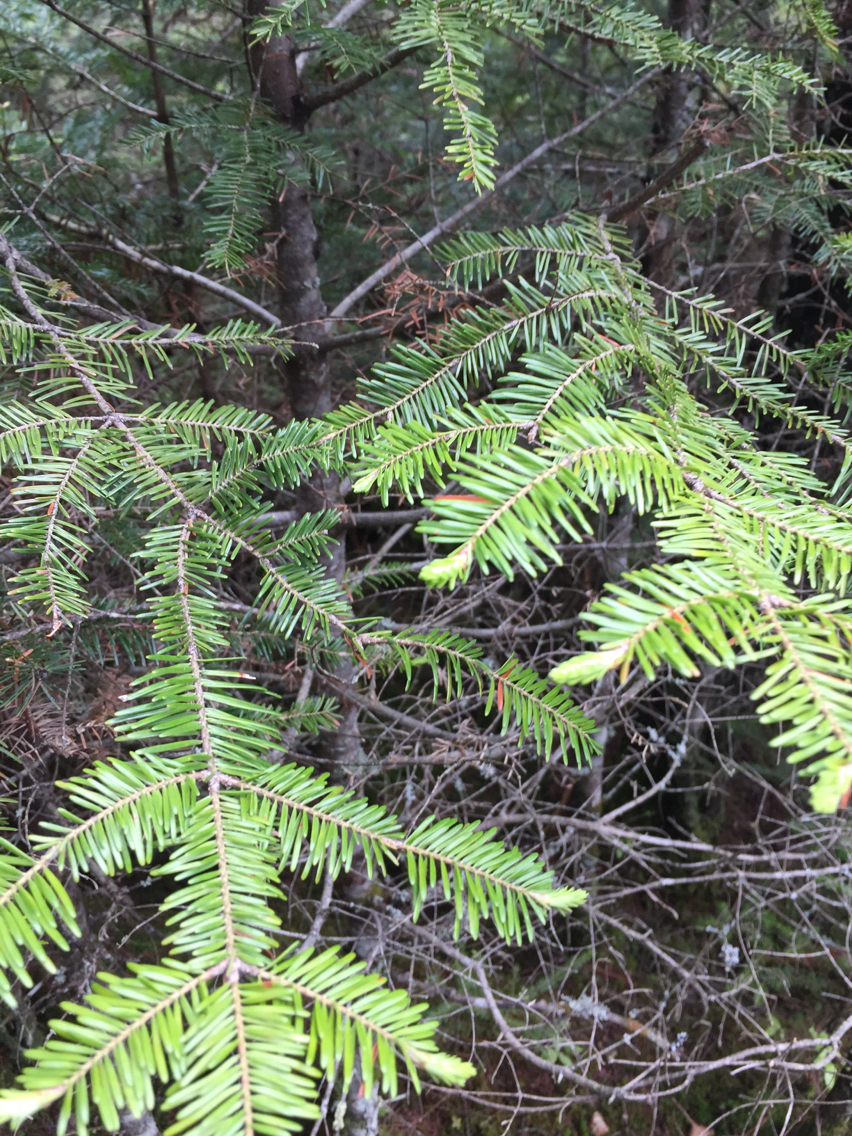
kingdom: Plantae
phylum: Tracheophyta
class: Pinopsida
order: Pinales
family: Pinaceae
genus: Abies
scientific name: Abies balsamea
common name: Balsam fir
